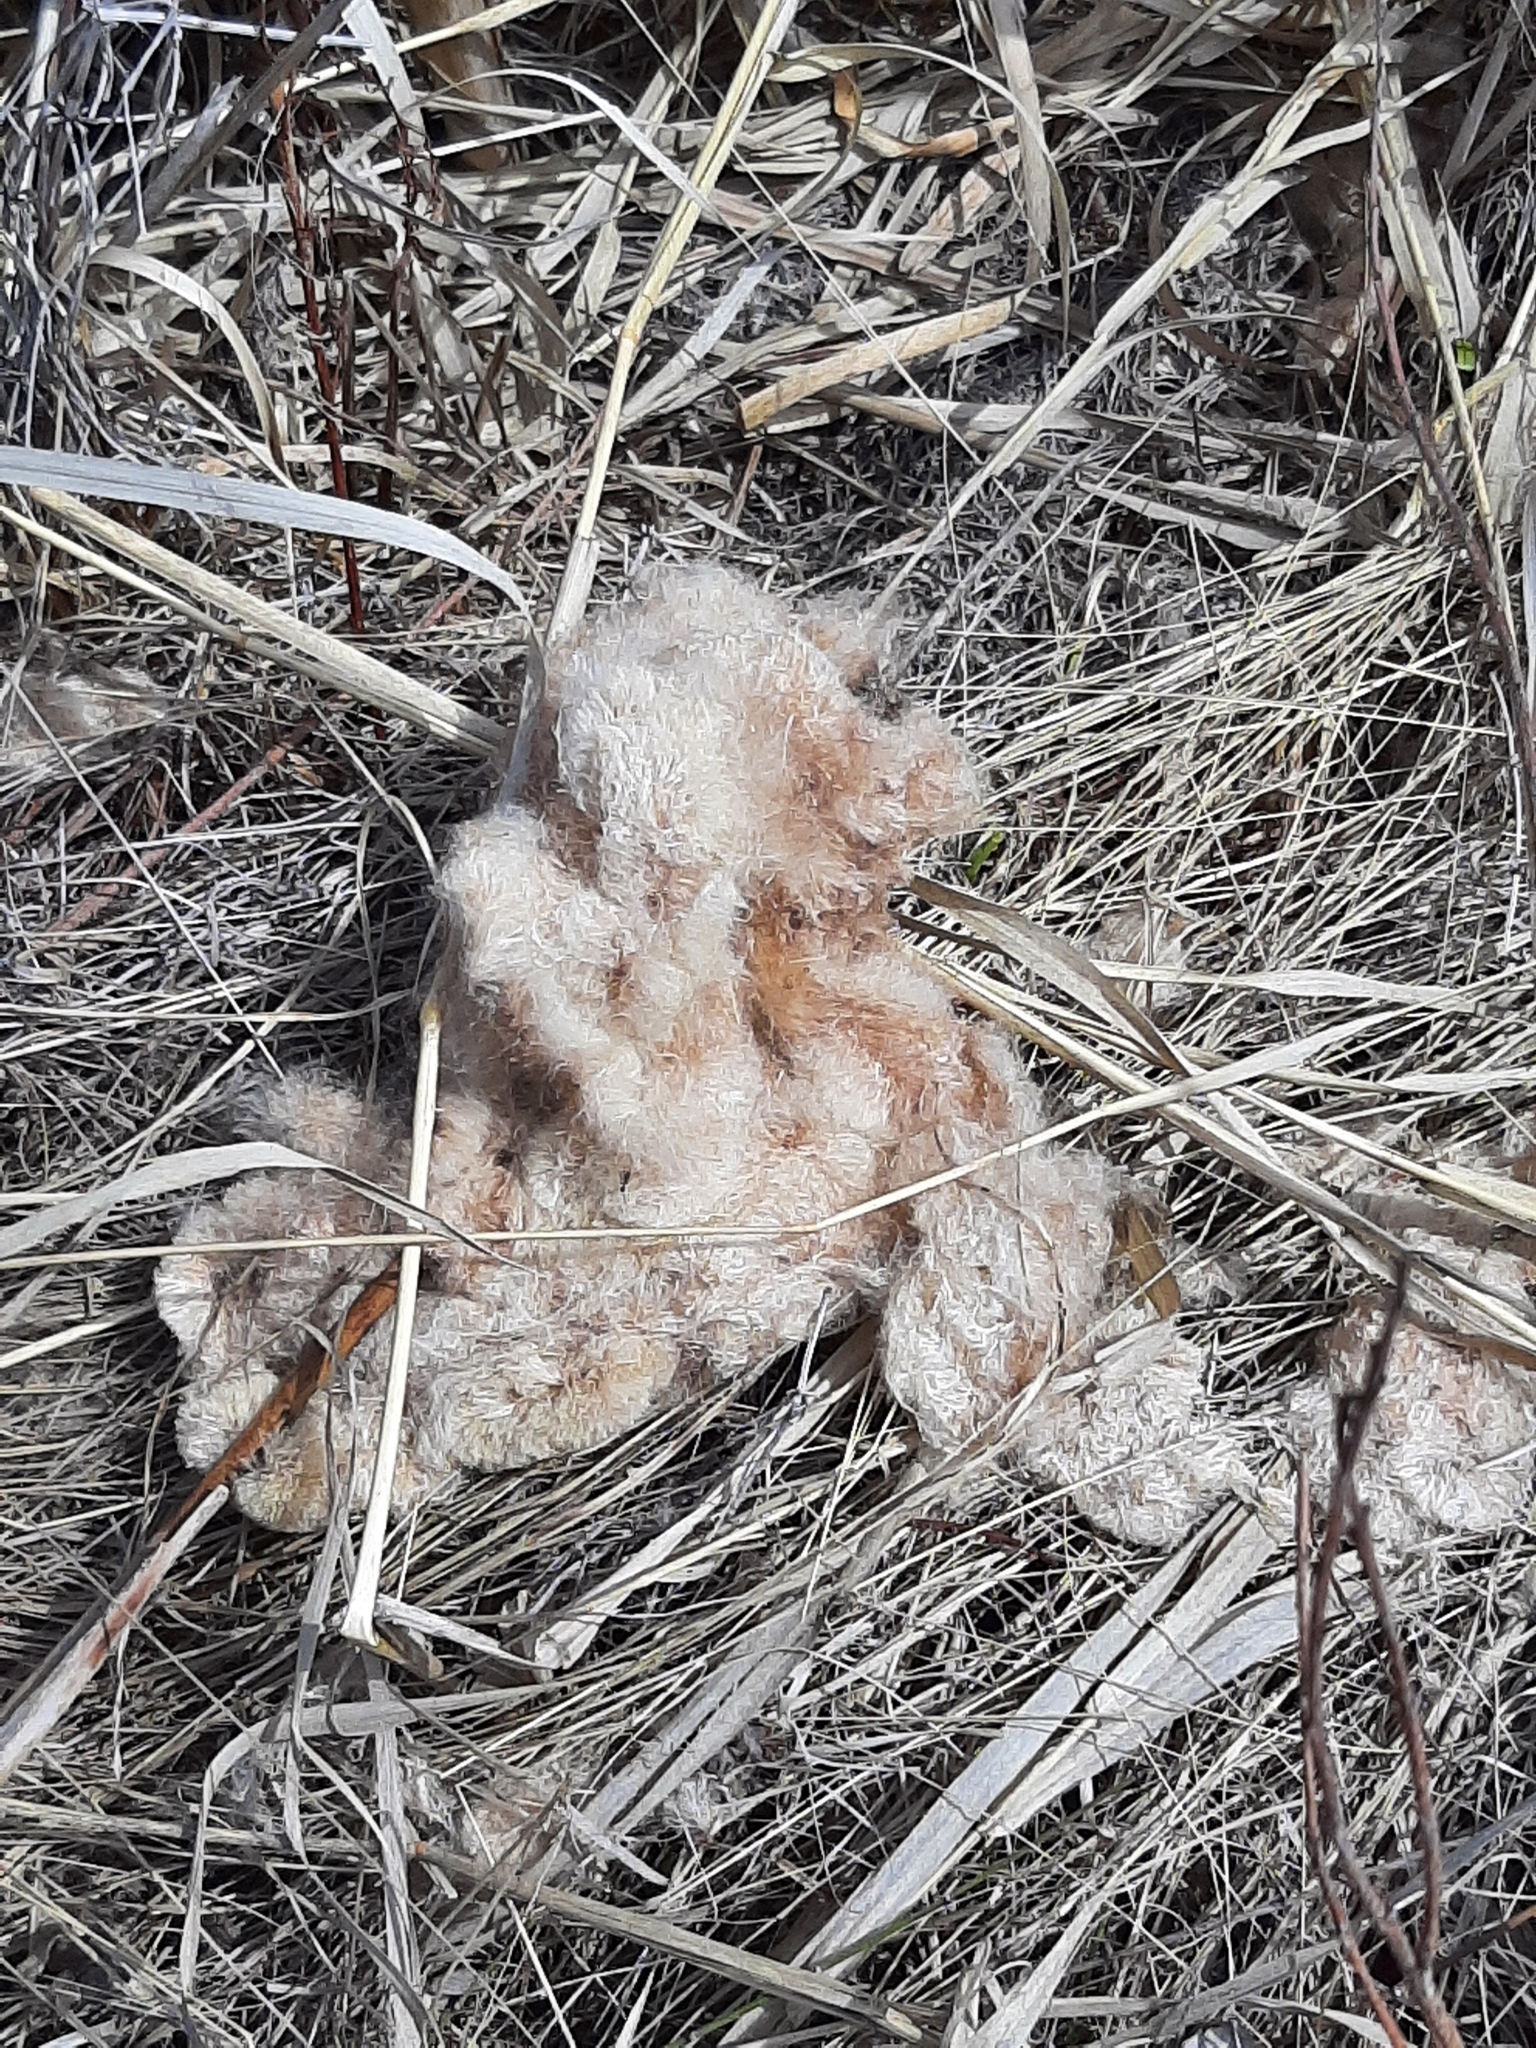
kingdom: Plantae
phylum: Tracheophyta
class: Liliopsida
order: Poales
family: Typhaceae
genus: Typha
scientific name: Typha latifolia
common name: Broadleaf cattail
